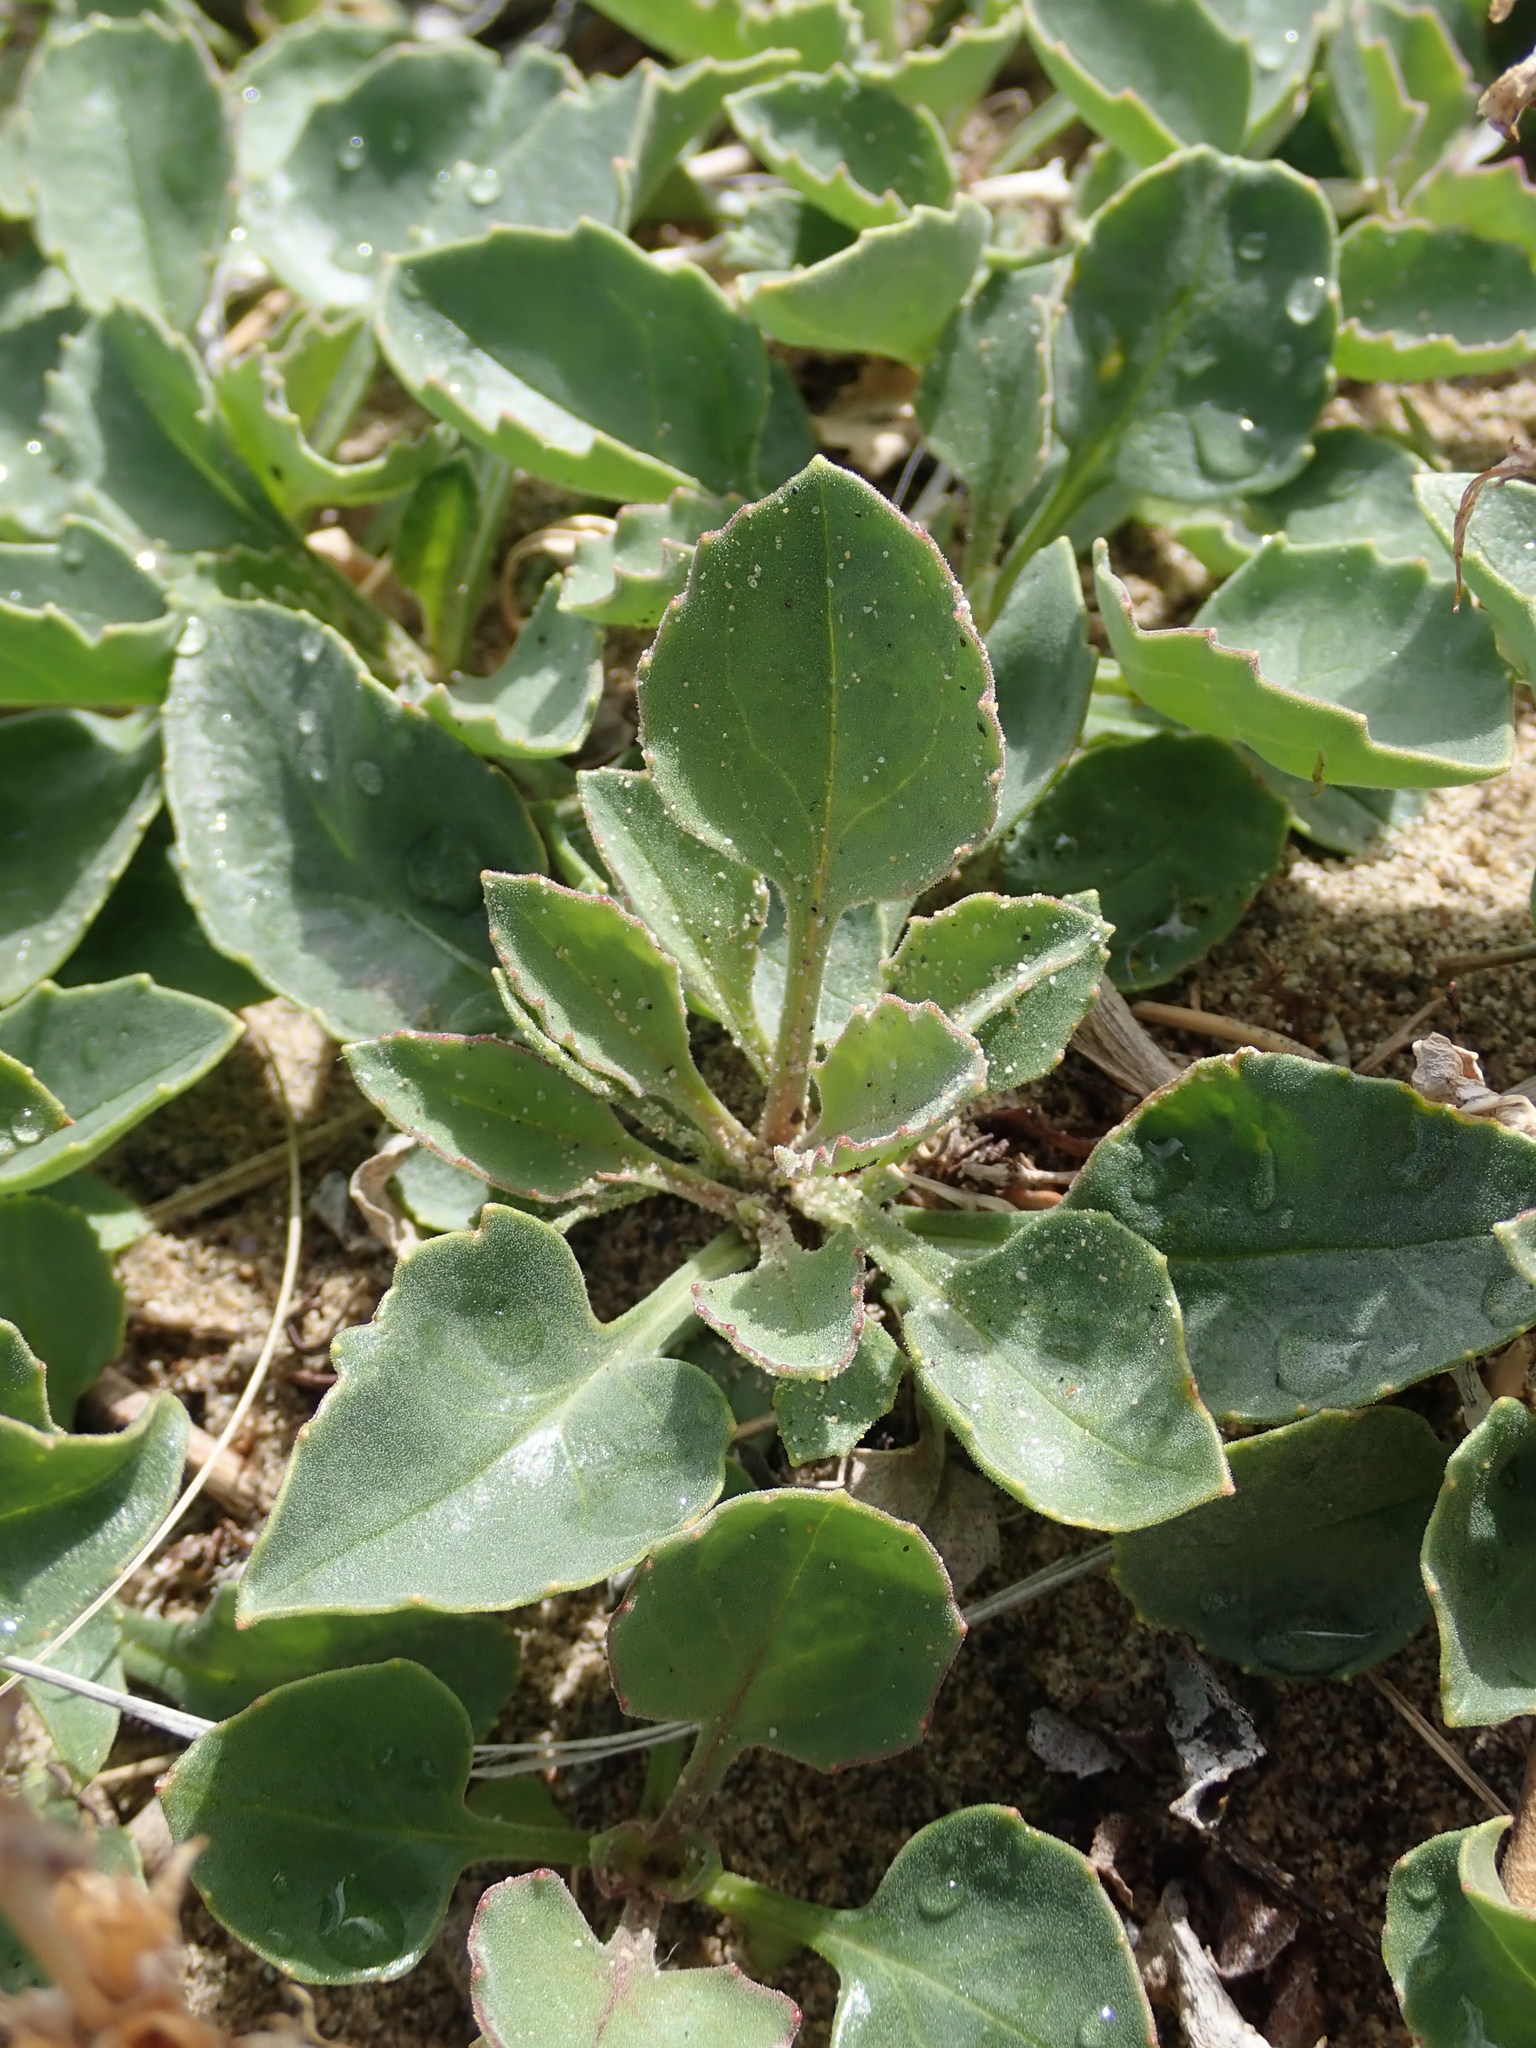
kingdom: Plantae
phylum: Tracheophyta
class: Magnoliopsida
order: Lamiales
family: Plantaginaceae
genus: Penstemon
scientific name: Penstemon pruinosus
